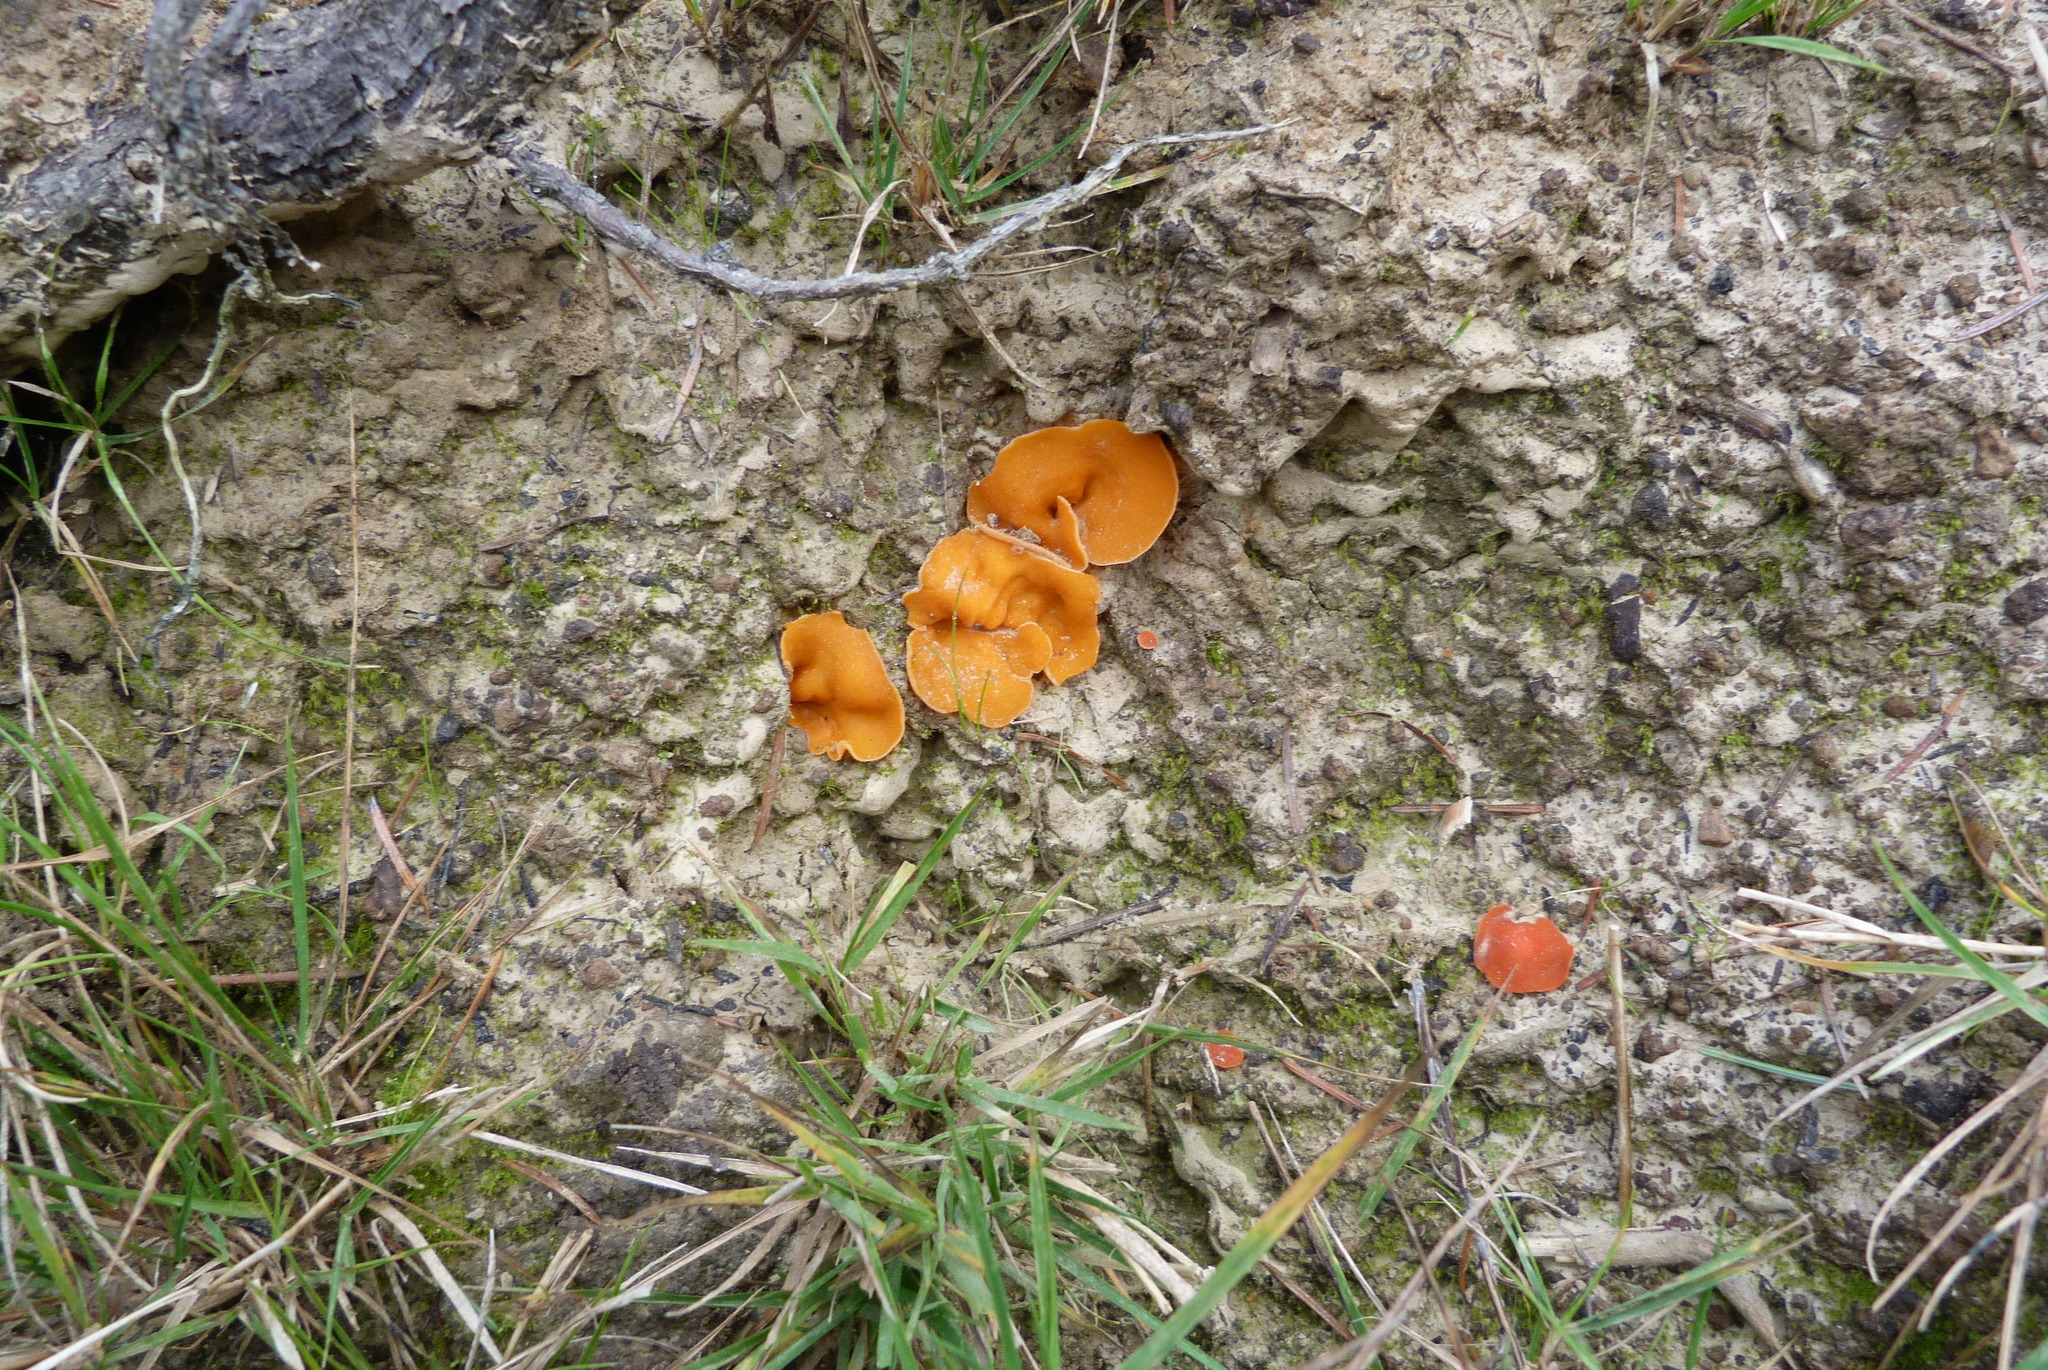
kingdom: Fungi
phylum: Ascomycota
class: Pezizomycetes
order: Pezizales
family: Pyronemataceae
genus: Aleuria
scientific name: Aleuria aurantia
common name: Orange peel fungus
